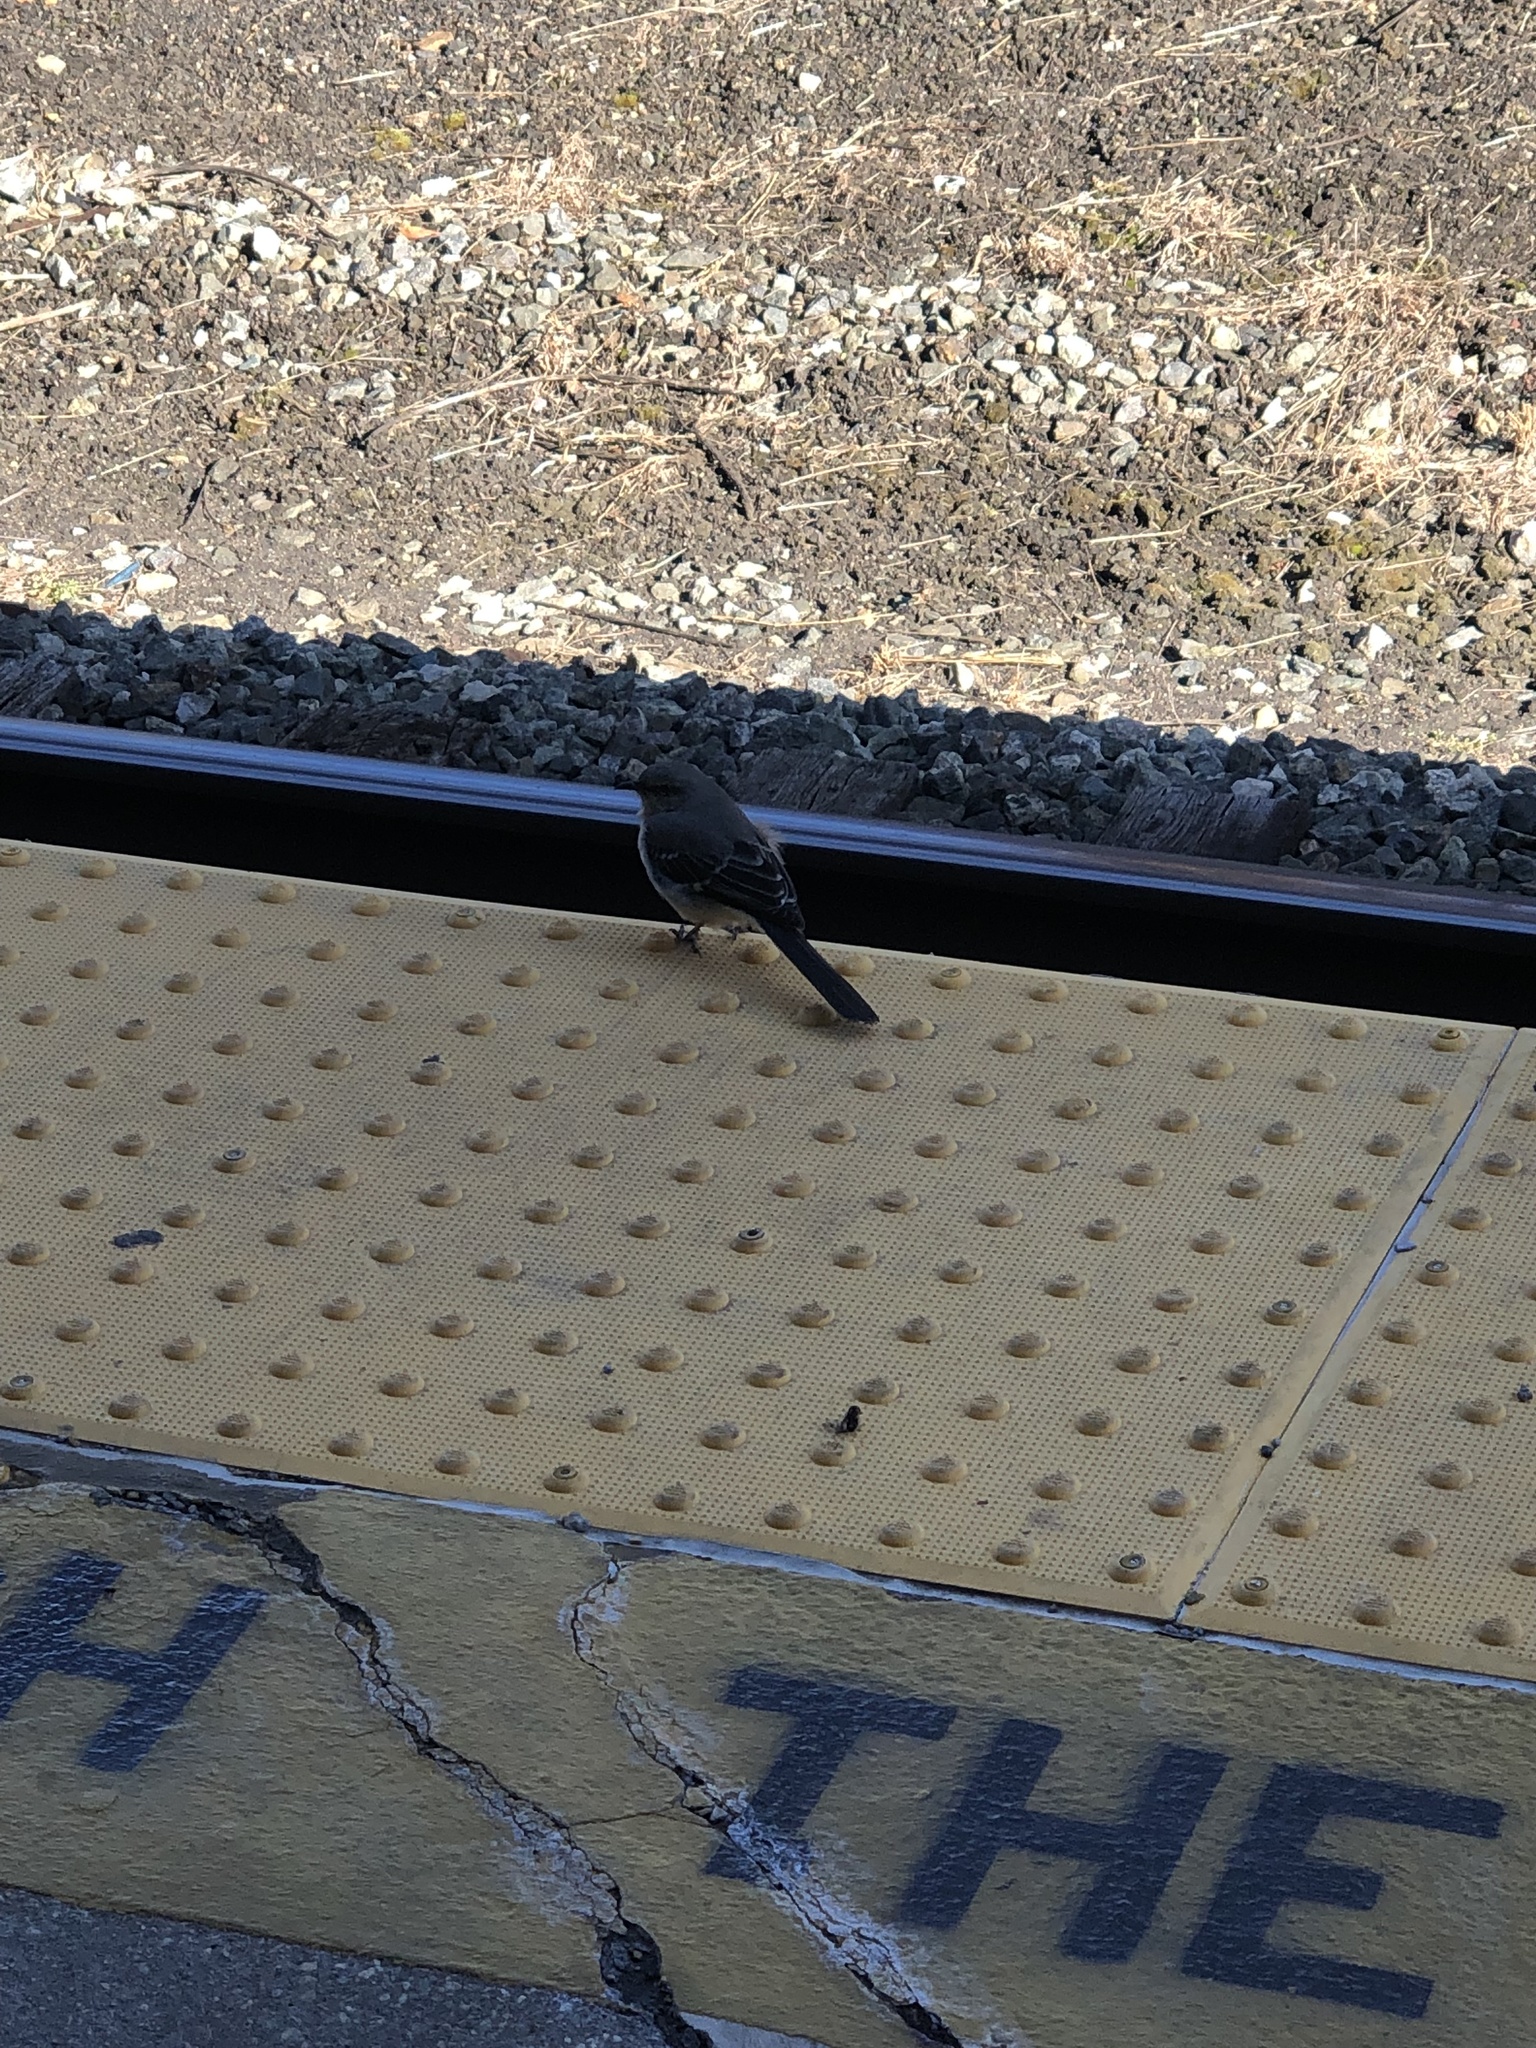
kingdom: Animalia
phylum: Chordata
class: Aves
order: Passeriformes
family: Mimidae
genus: Mimus
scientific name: Mimus polyglottos
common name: Northern mockingbird
